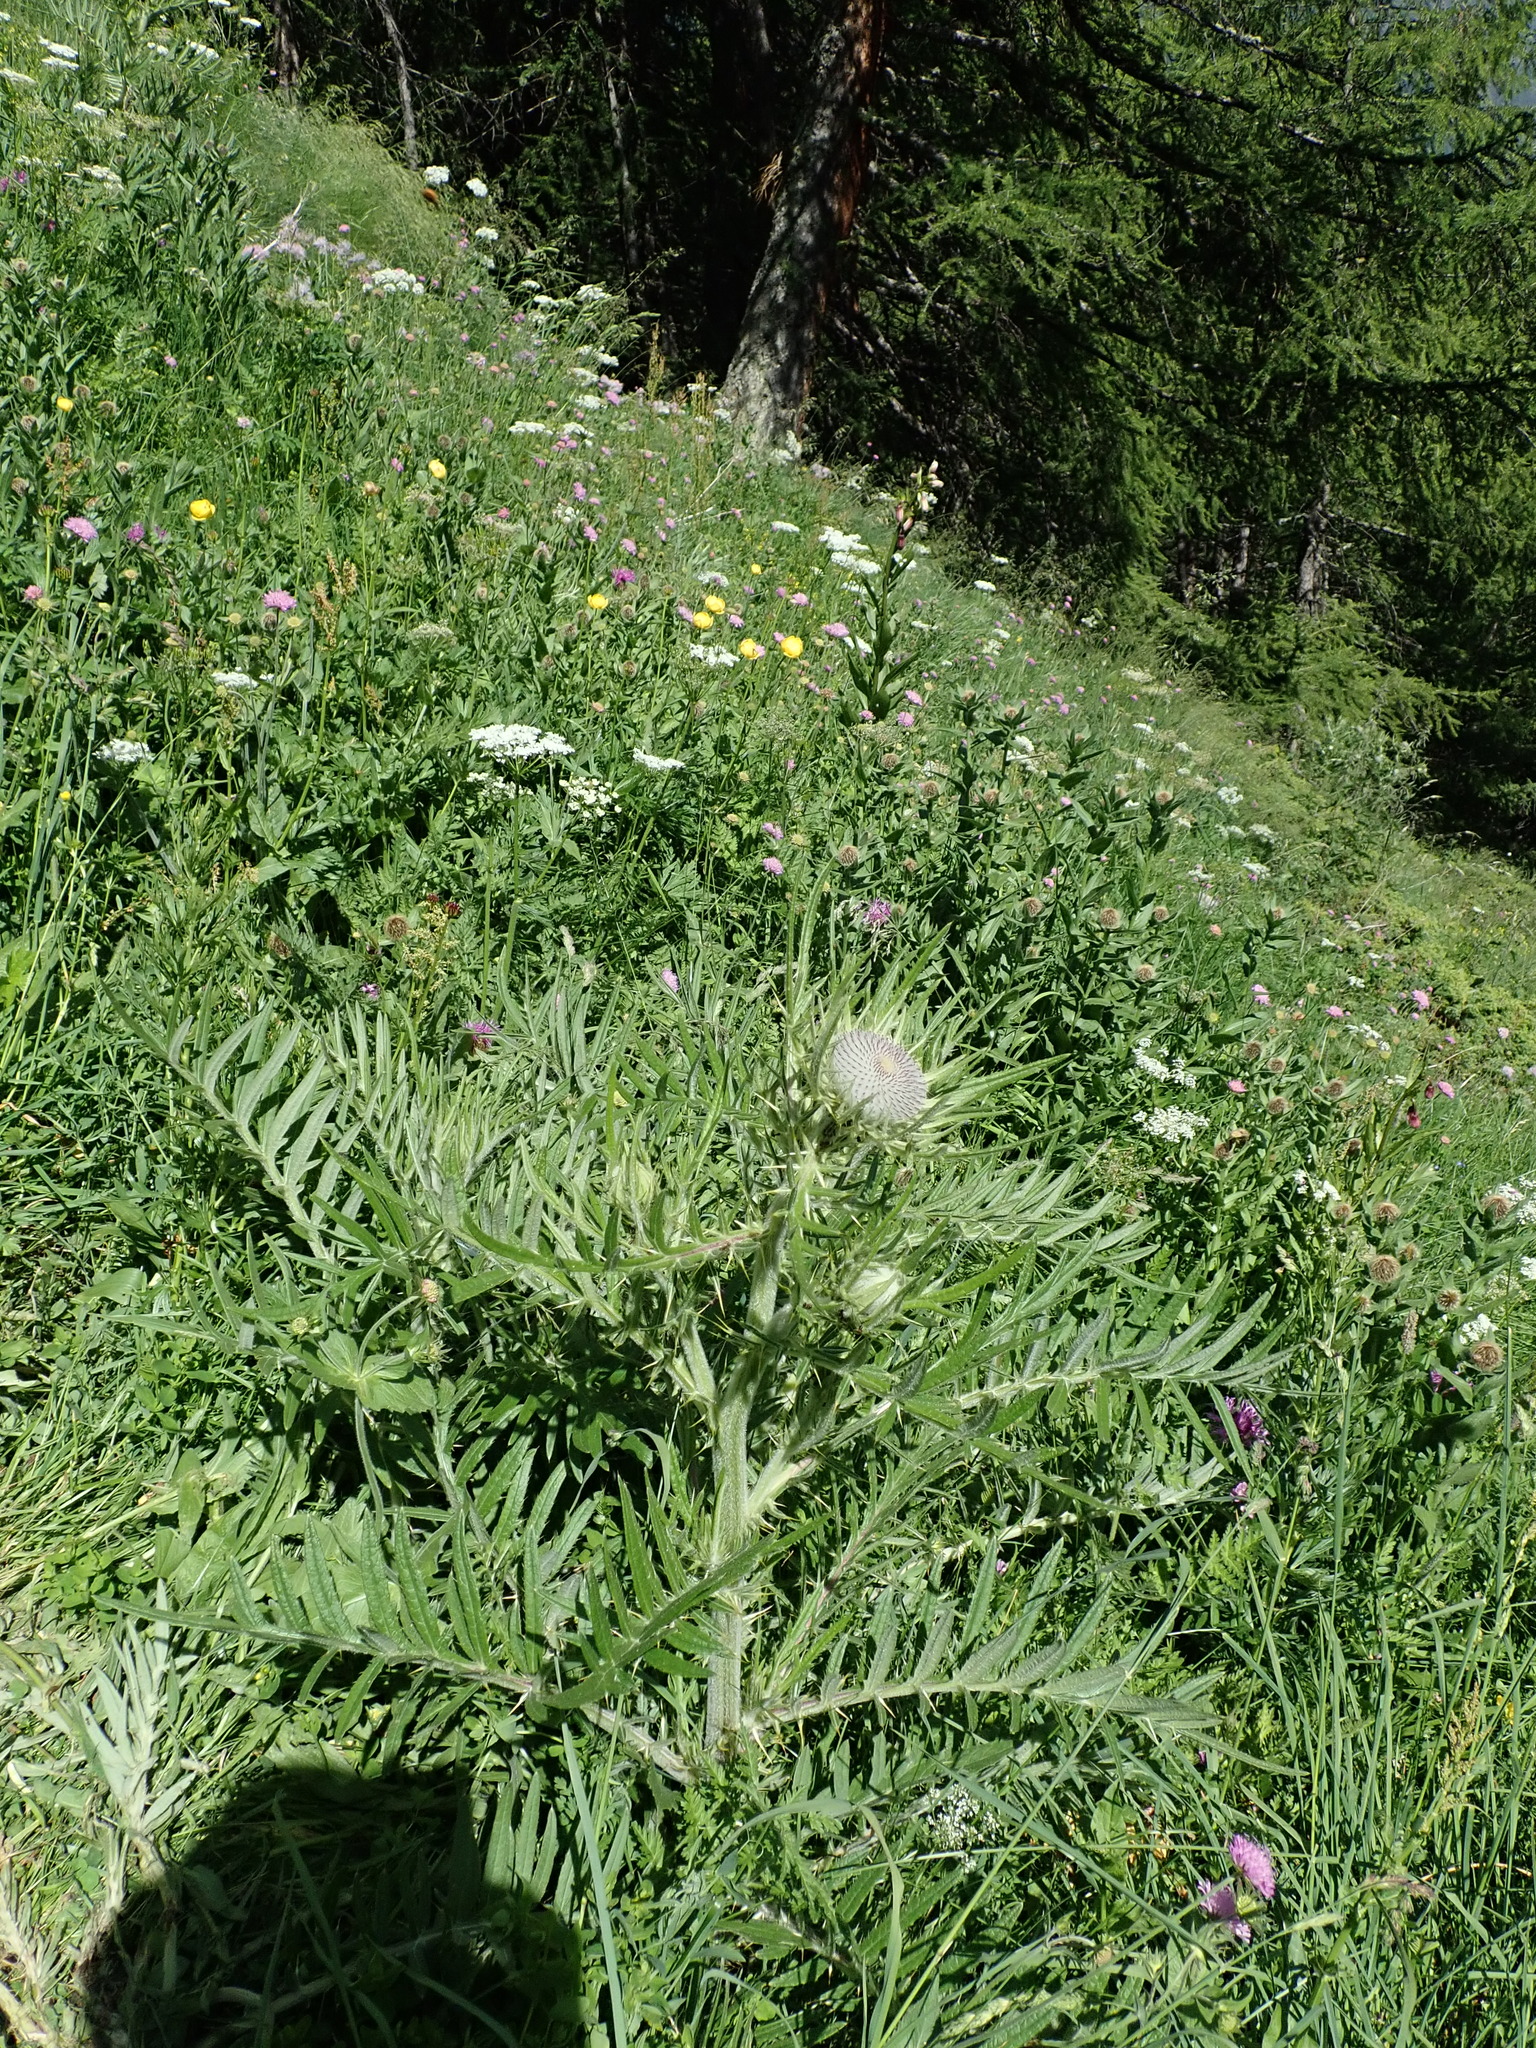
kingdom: Plantae
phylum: Tracheophyta
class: Magnoliopsida
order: Asterales
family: Asteraceae
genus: Lophiolepis
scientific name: Lophiolepis eriophora
